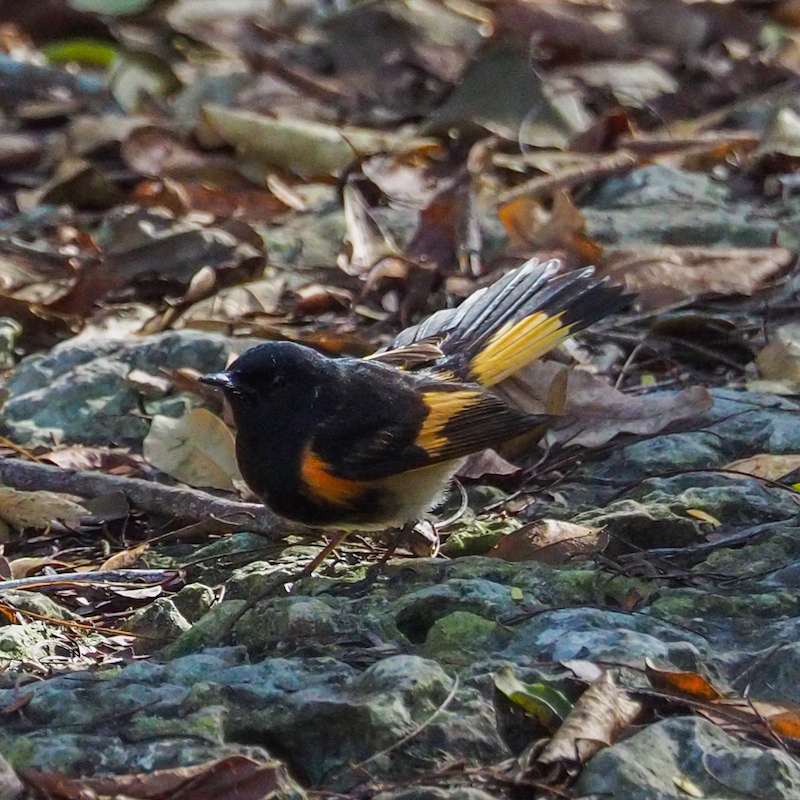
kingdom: Animalia
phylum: Chordata
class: Aves
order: Passeriformes
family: Parulidae
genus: Setophaga
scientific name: Setophaga ruticilla
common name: American redstart
